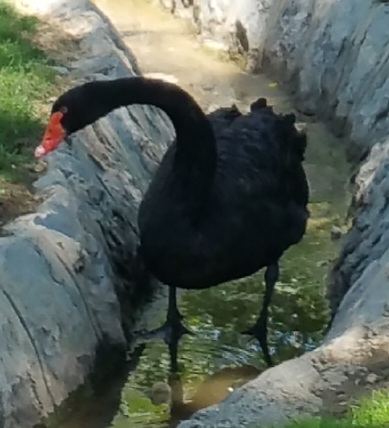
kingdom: Animalia
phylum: Chordata
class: Aves
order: Anseriformes
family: Anatidae
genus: Cygnus
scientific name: Cygnus atratus
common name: Black swan
